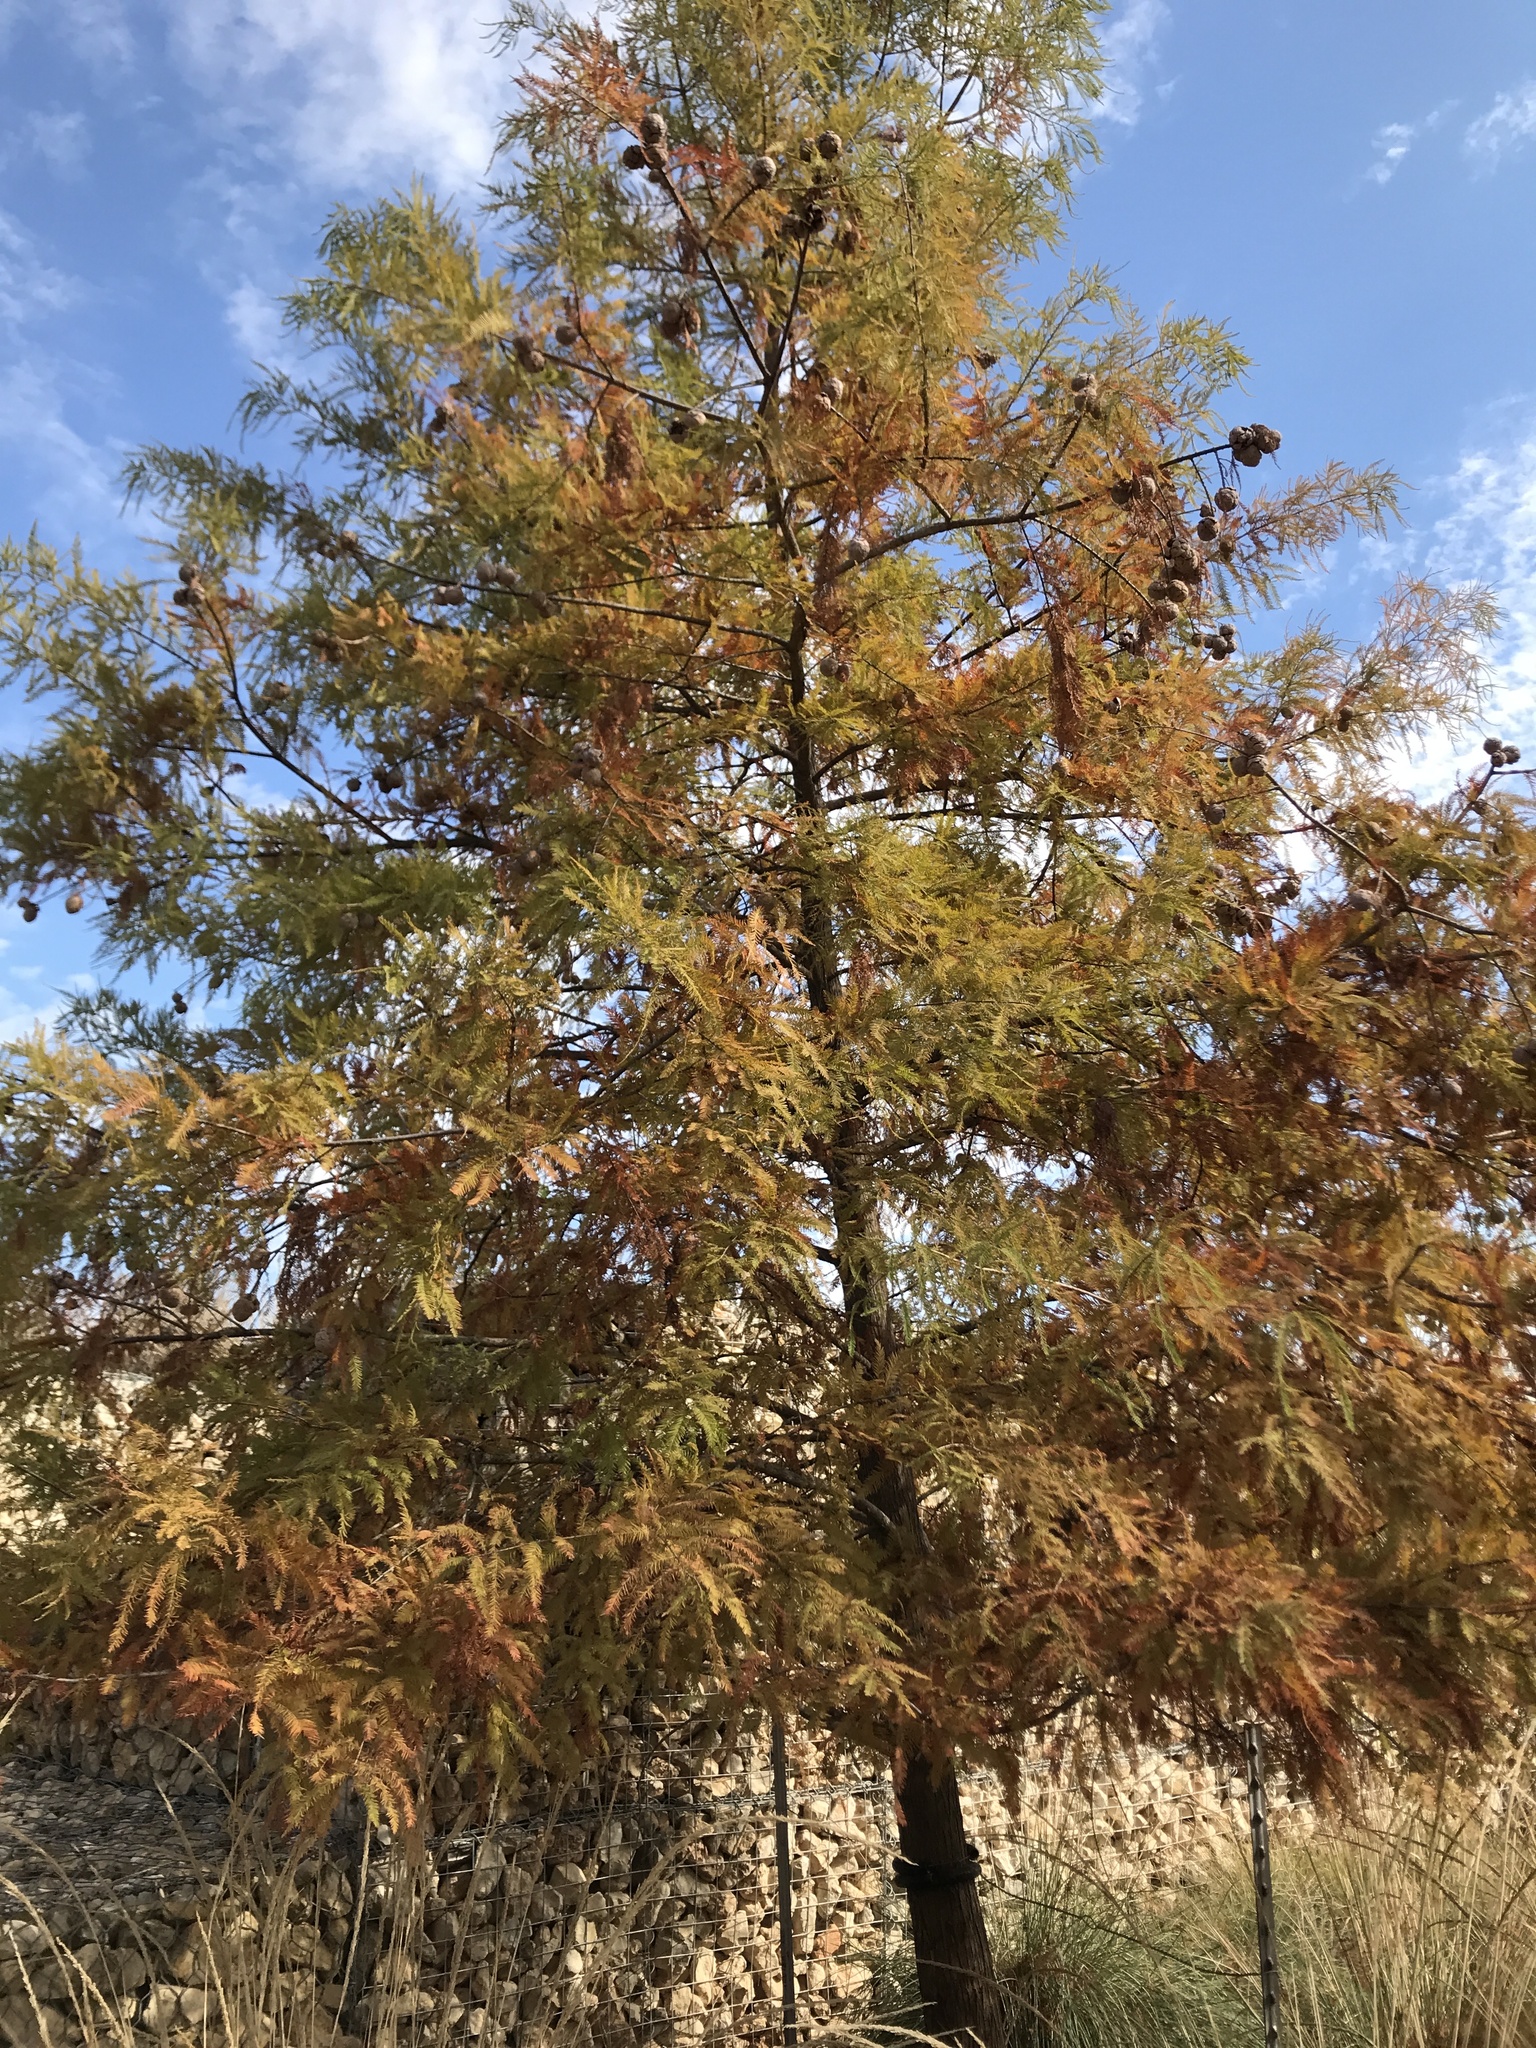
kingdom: Plantae
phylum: Tracheophyta
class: Pinopsida
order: Pinales
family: Cupressaceae
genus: Taxodium
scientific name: Taxodium distichum
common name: Bald cypress
